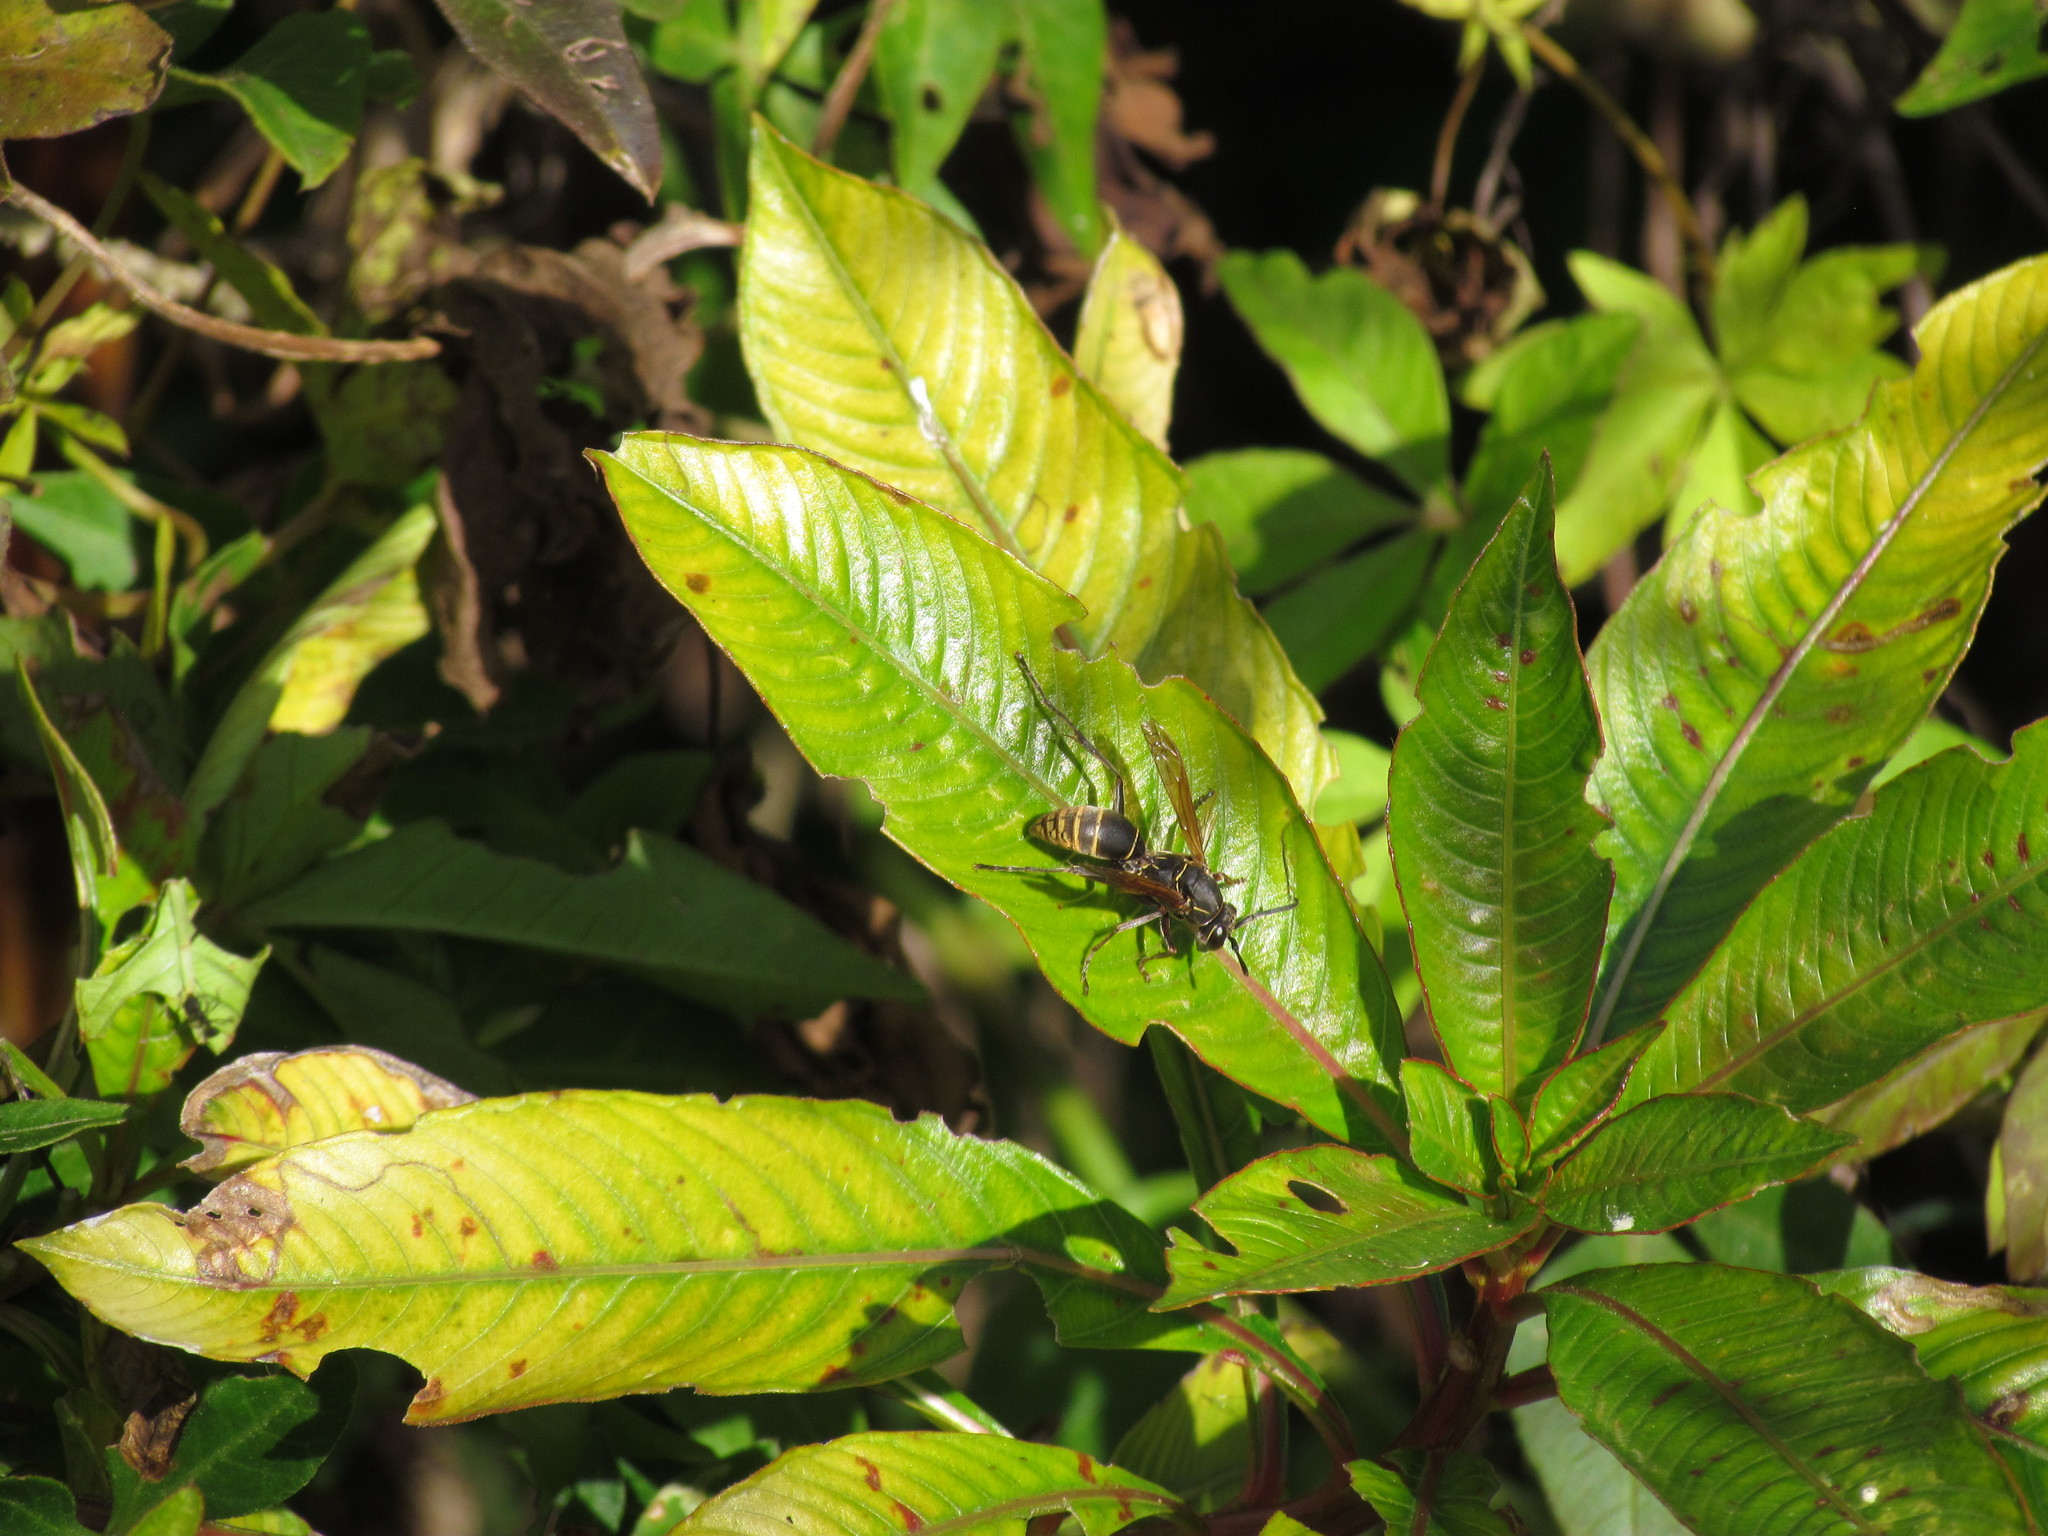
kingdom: Animalia
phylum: Arthropoda
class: Insecta
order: Hymenoptera
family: Eumenidae
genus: Polistes
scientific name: Polistes cinerascens
